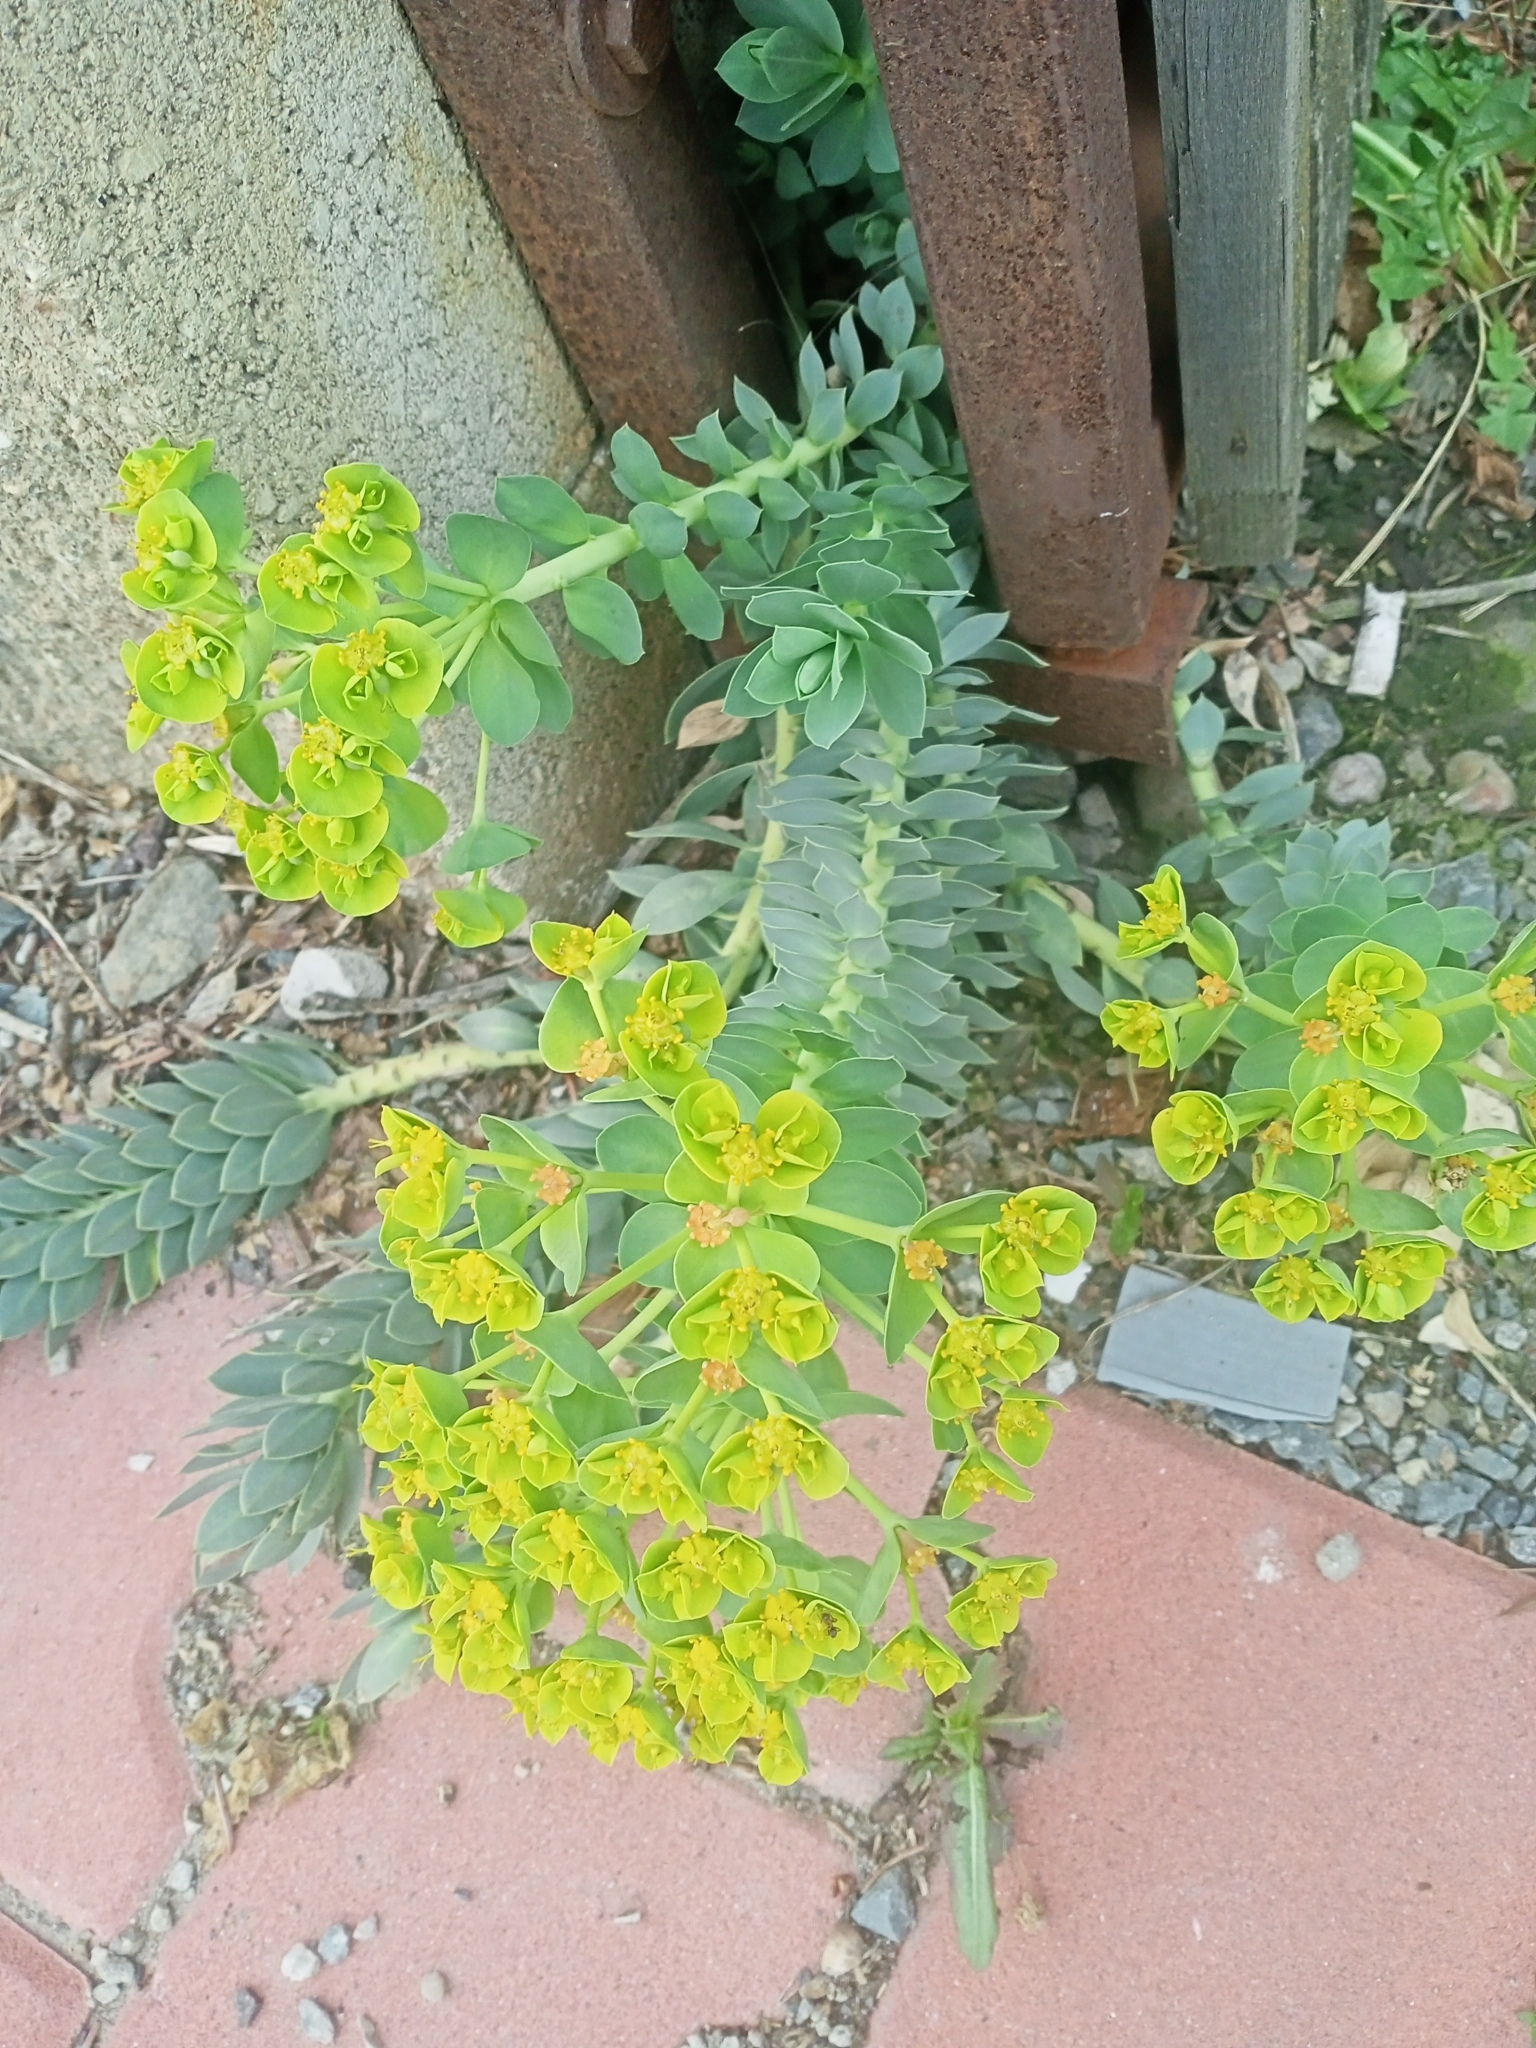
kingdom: Plantae
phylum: Tracheophyta
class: Magnoliopsida
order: Malpighiales
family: Euphorbiaceae
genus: Euphorbia
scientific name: Euphorbia myrsinites
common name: Myrtle spurge
